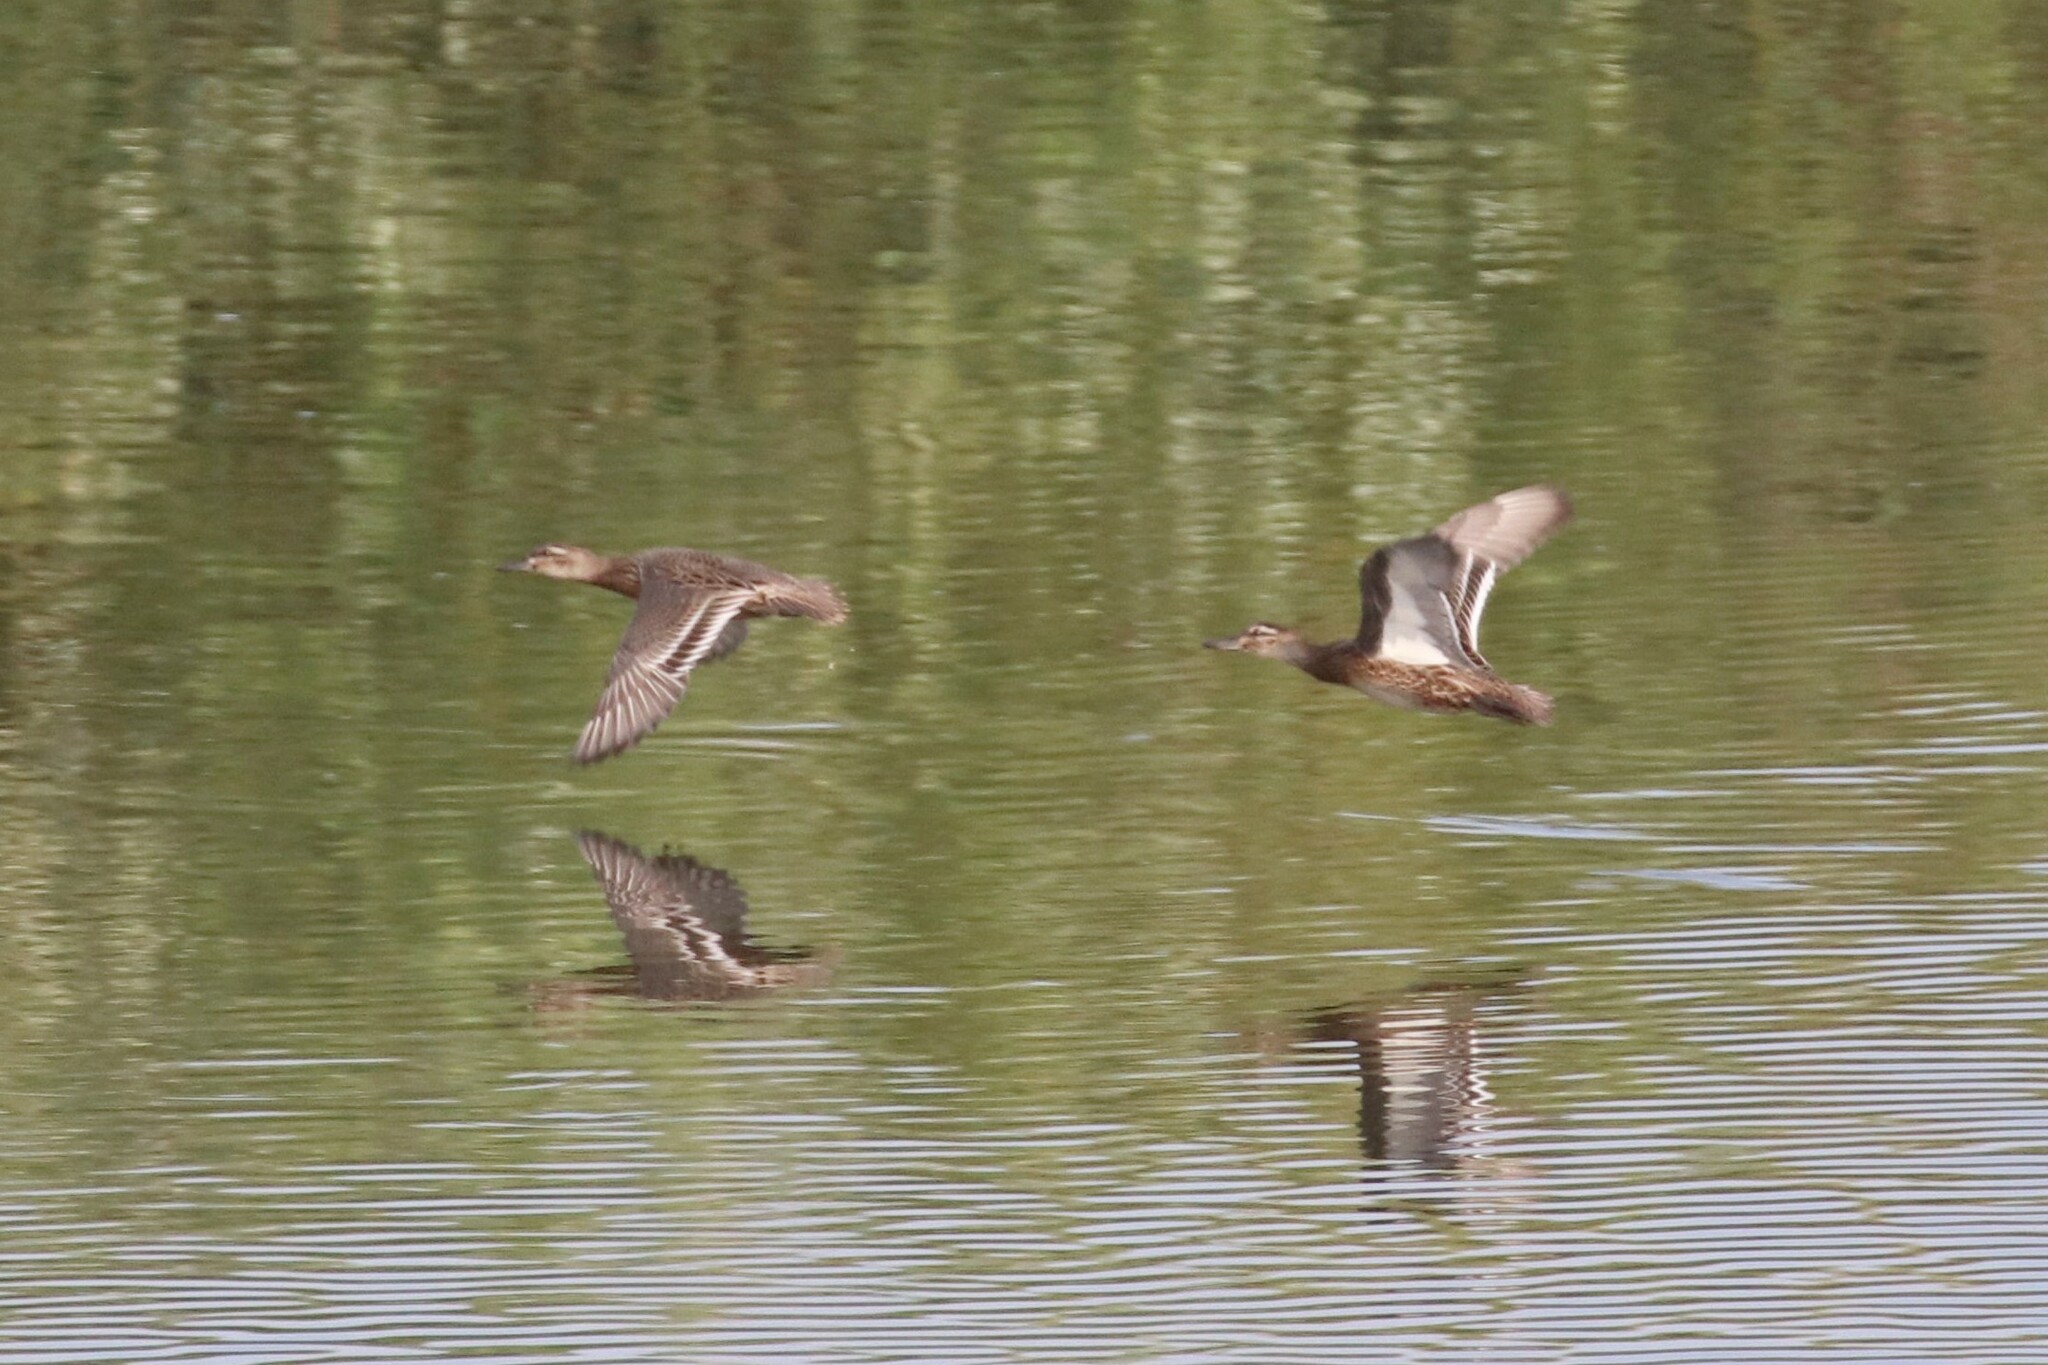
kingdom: Animalia
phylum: Chordata
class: Aves
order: Anseriformes
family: Anatidae
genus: Spatula
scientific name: Spatula querquedula
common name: Garganey
